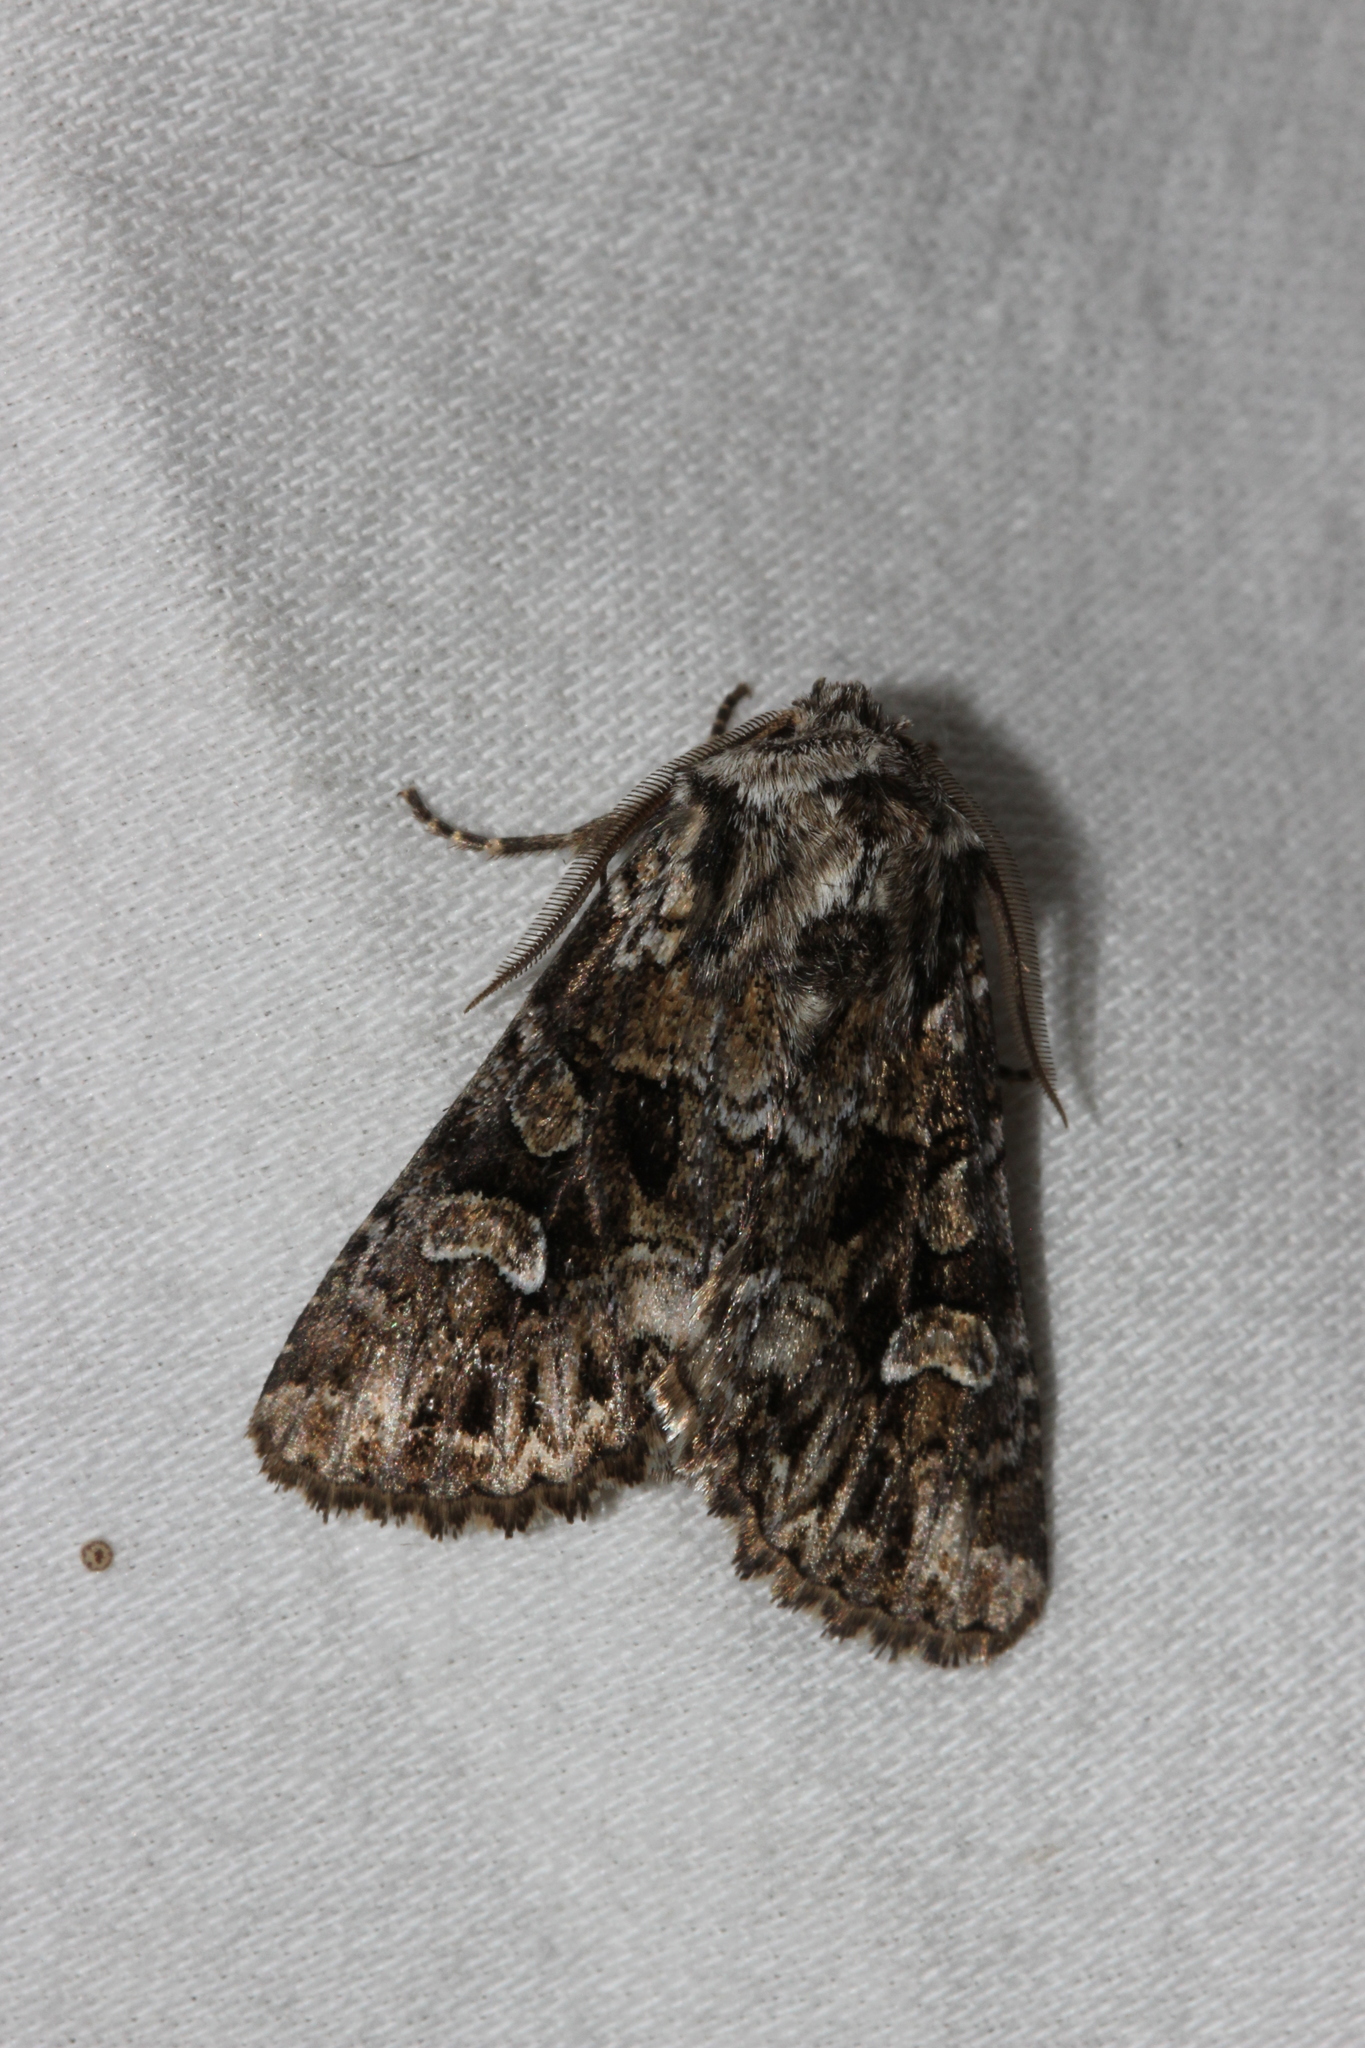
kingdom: Animalia
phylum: Arthropoda
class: Insecta
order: Lepidoptera
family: Noctuidae
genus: Pachetra
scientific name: Pachetra sagittigera
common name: Feathered ear
